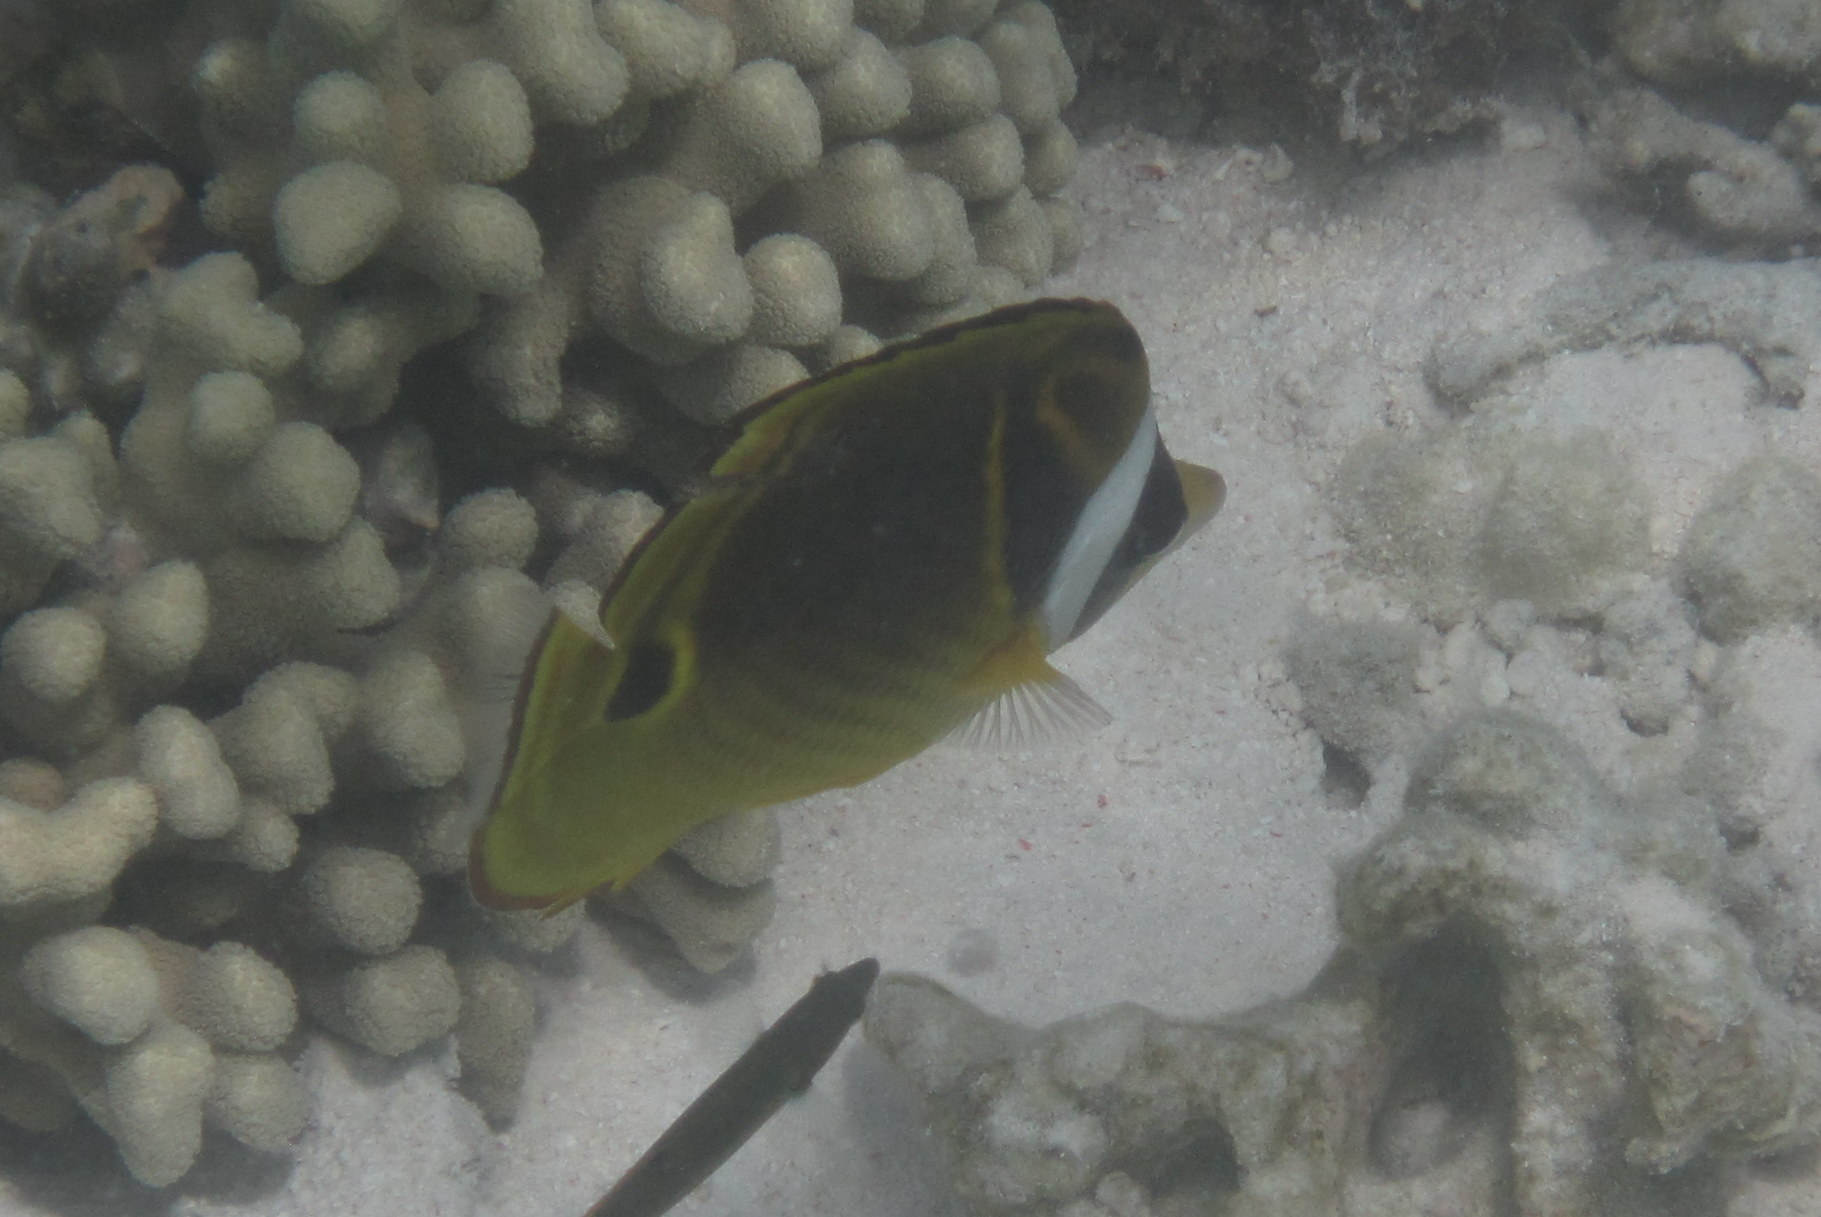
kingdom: Animalia
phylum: Chordata
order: Perciformes
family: Chaetodontidae
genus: Chaetodon
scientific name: Chaetodon lunula
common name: Raccoon butterflyfish
